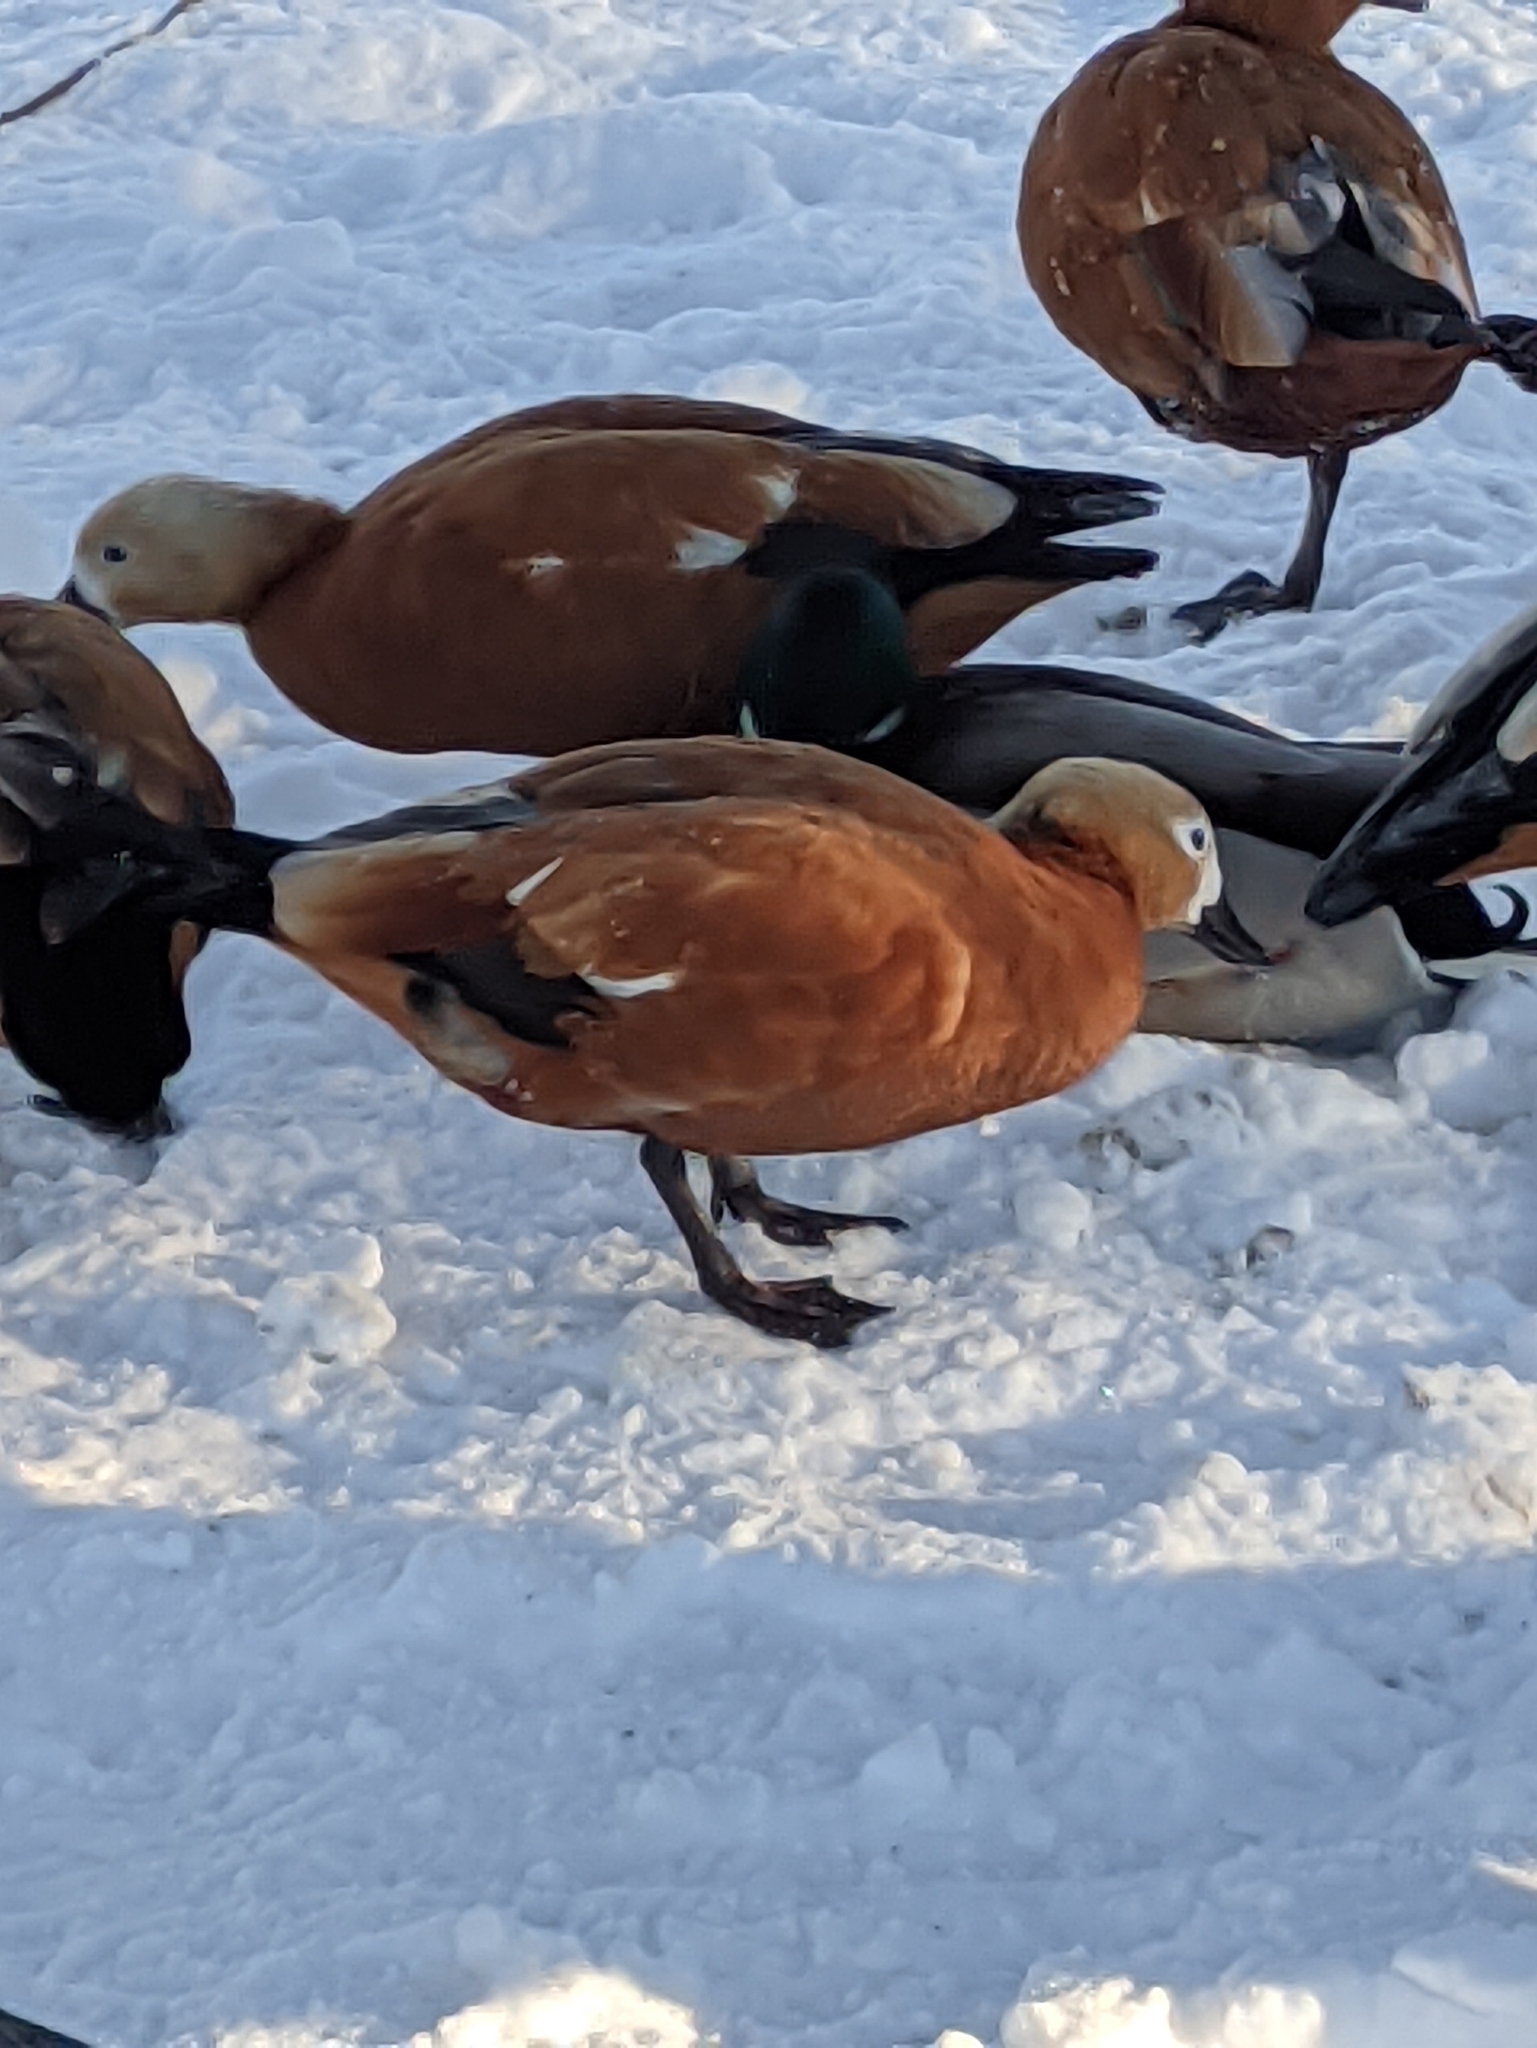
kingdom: Animalia
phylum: Chordata
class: Aves
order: Anseriformes
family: Anatidae
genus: Tadorna
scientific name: Tadorna ferruginea
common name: Ruddy shelduck
